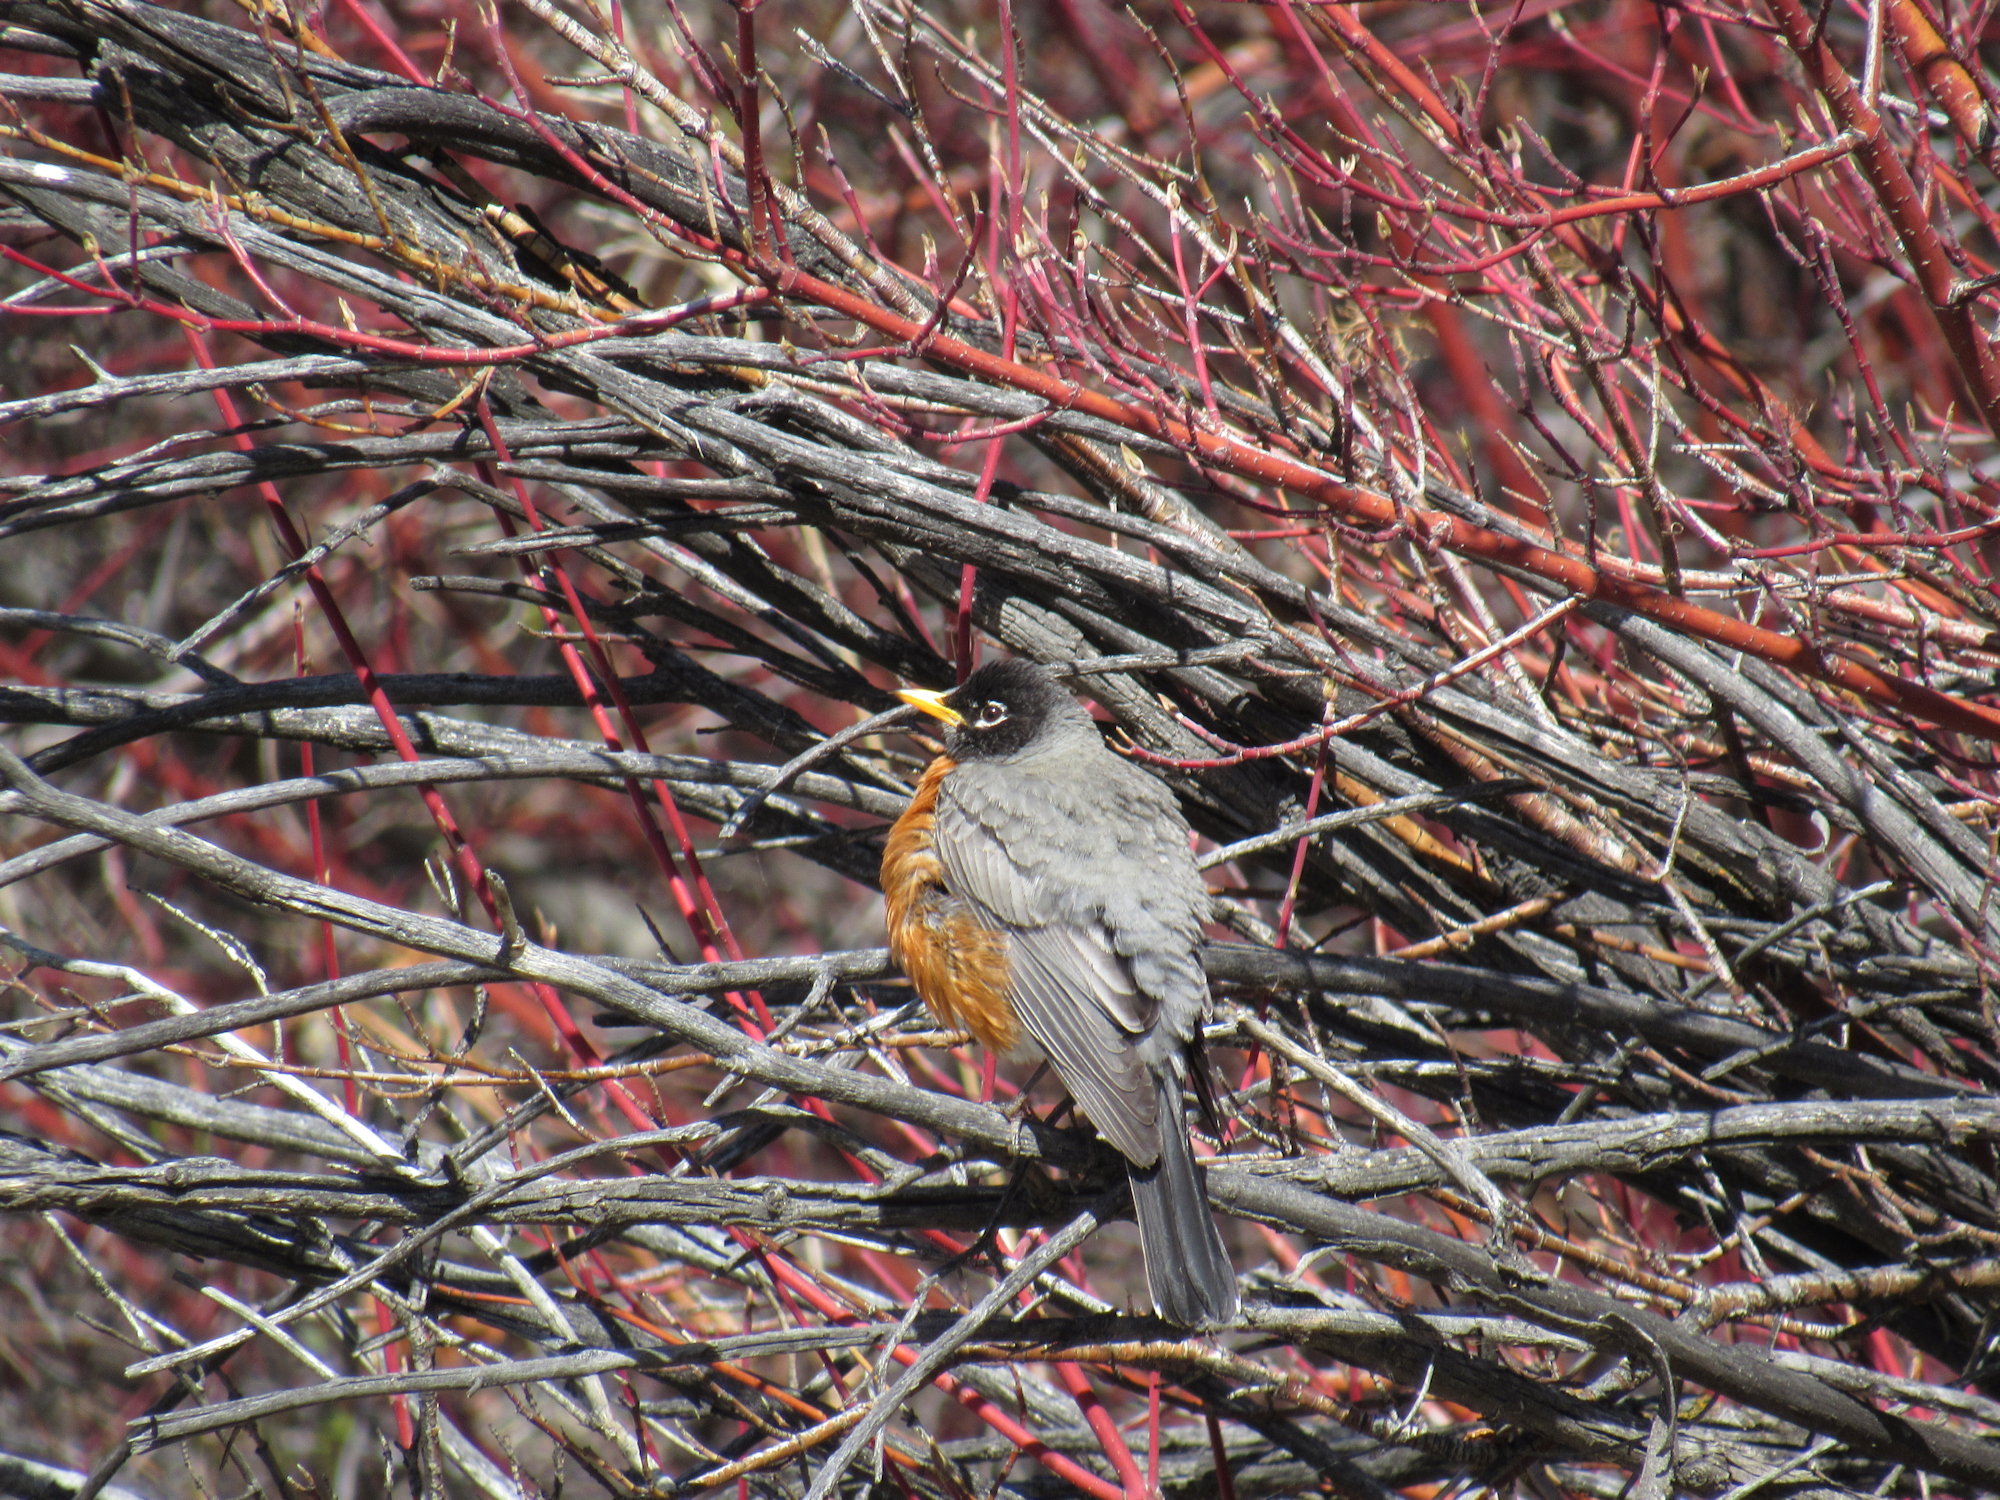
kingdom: Animalia
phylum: Chordata
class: Aves
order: Passeriformes
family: Turdidae
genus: Turdus
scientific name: Turdus migratorius
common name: American robin
